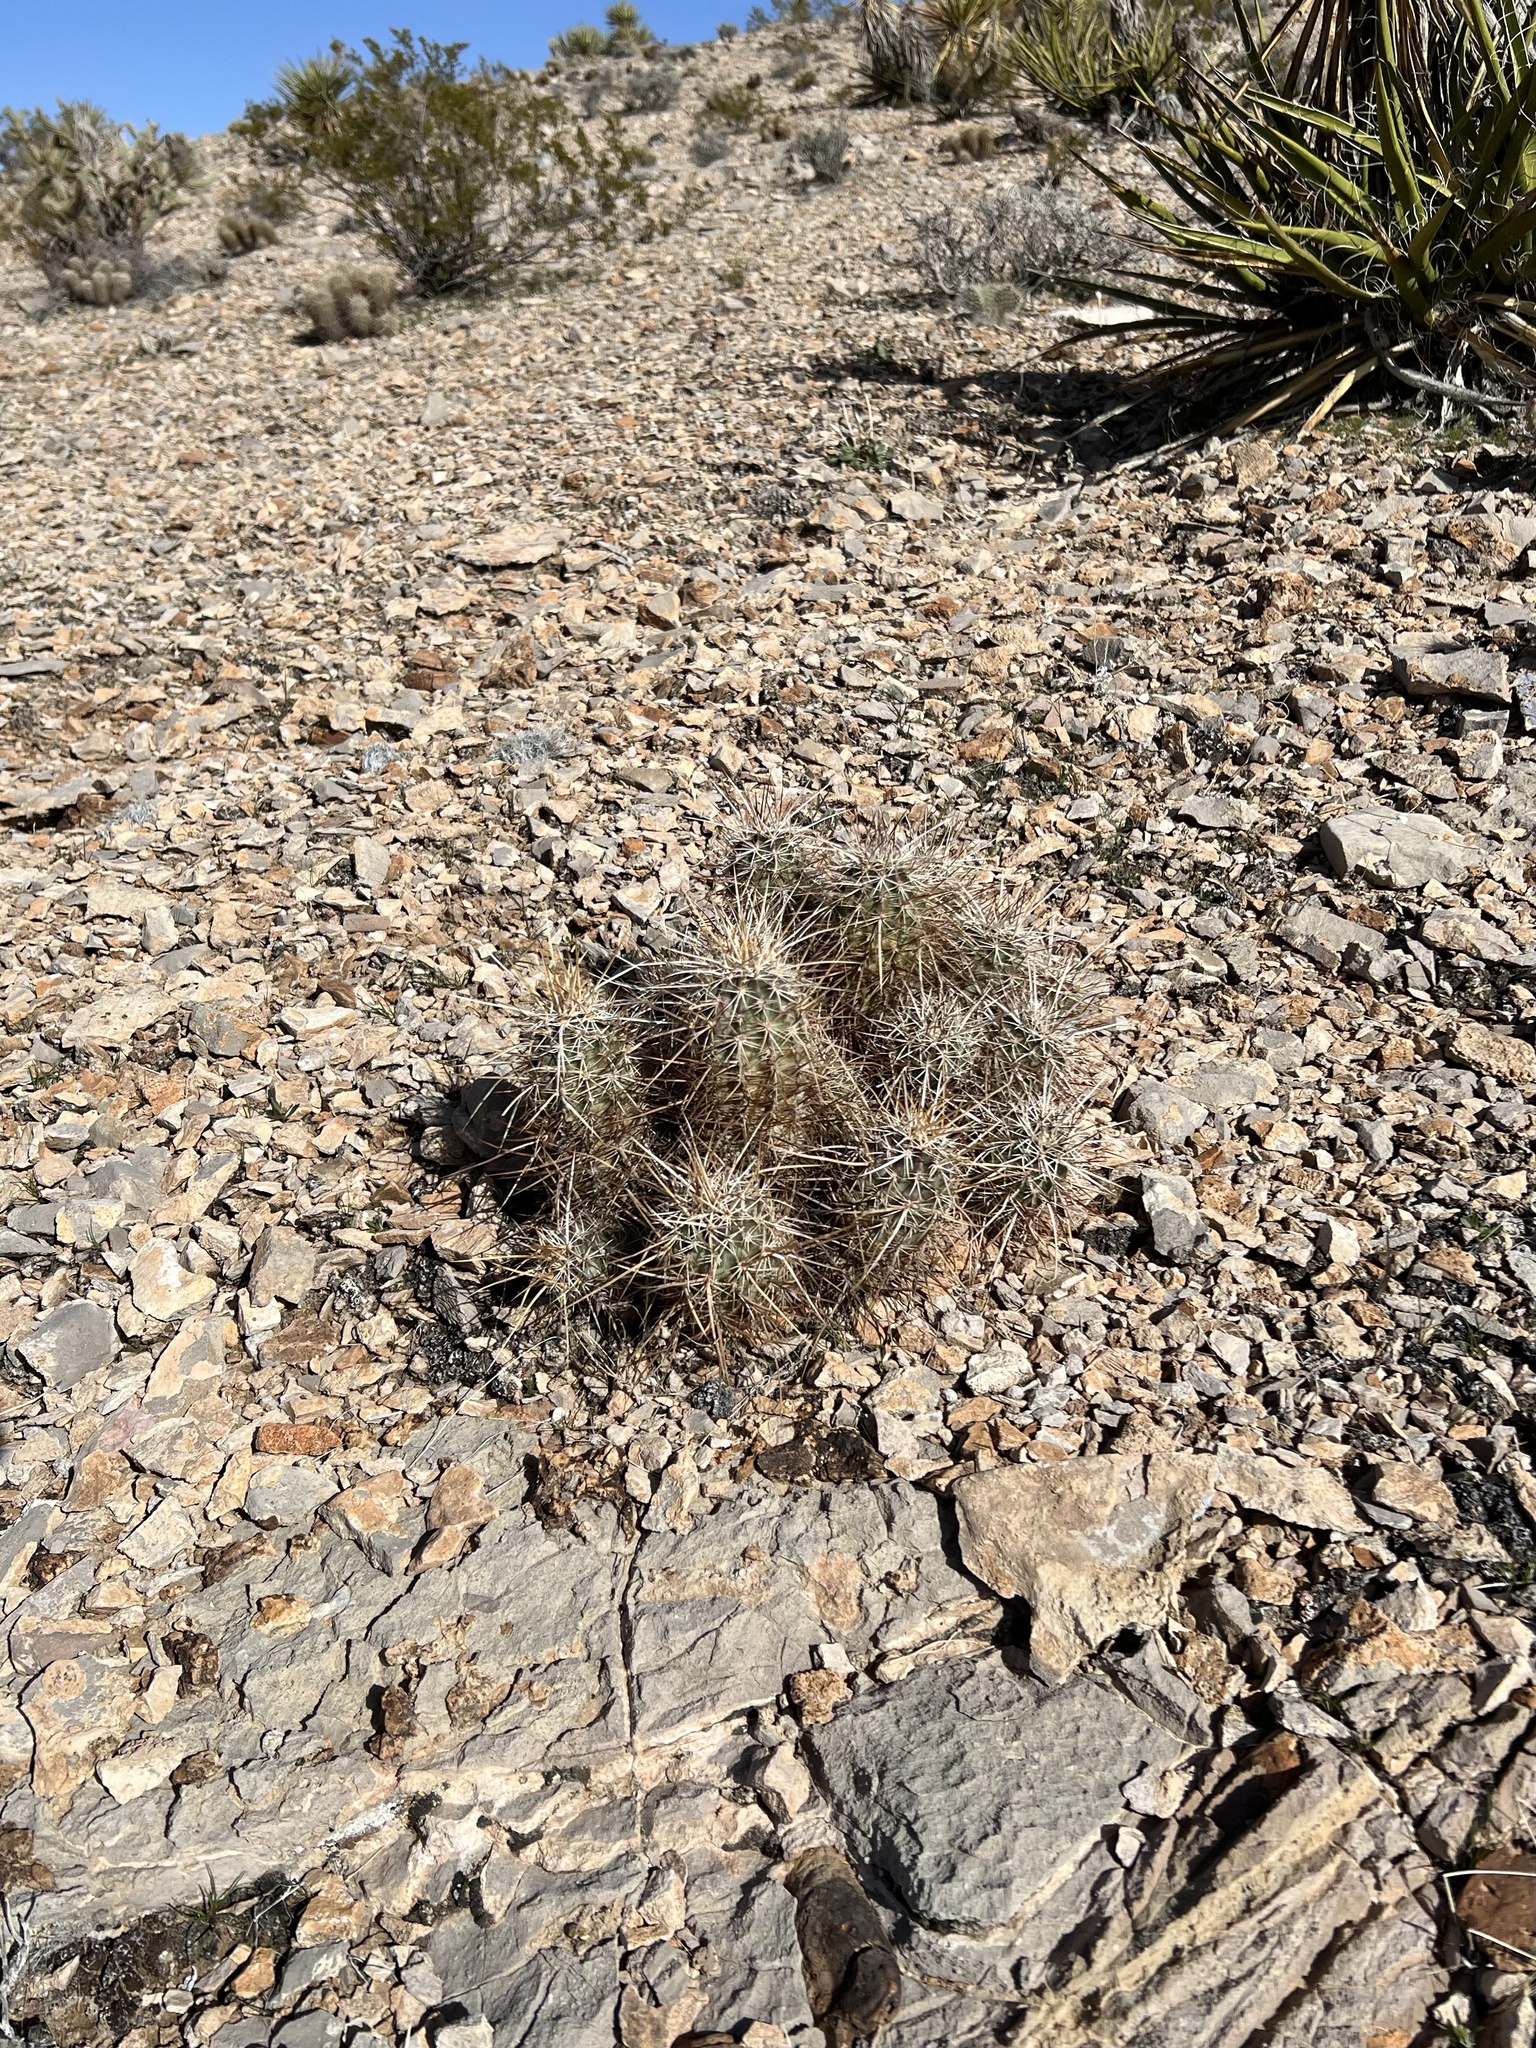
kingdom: Plantae
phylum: Tracheophyta
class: Magnoliopsida
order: Caryophyllales
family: Cactaceae
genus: Echinocereus
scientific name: Echinocereus engelmannii
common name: Engelmann's hedgehog cactus
